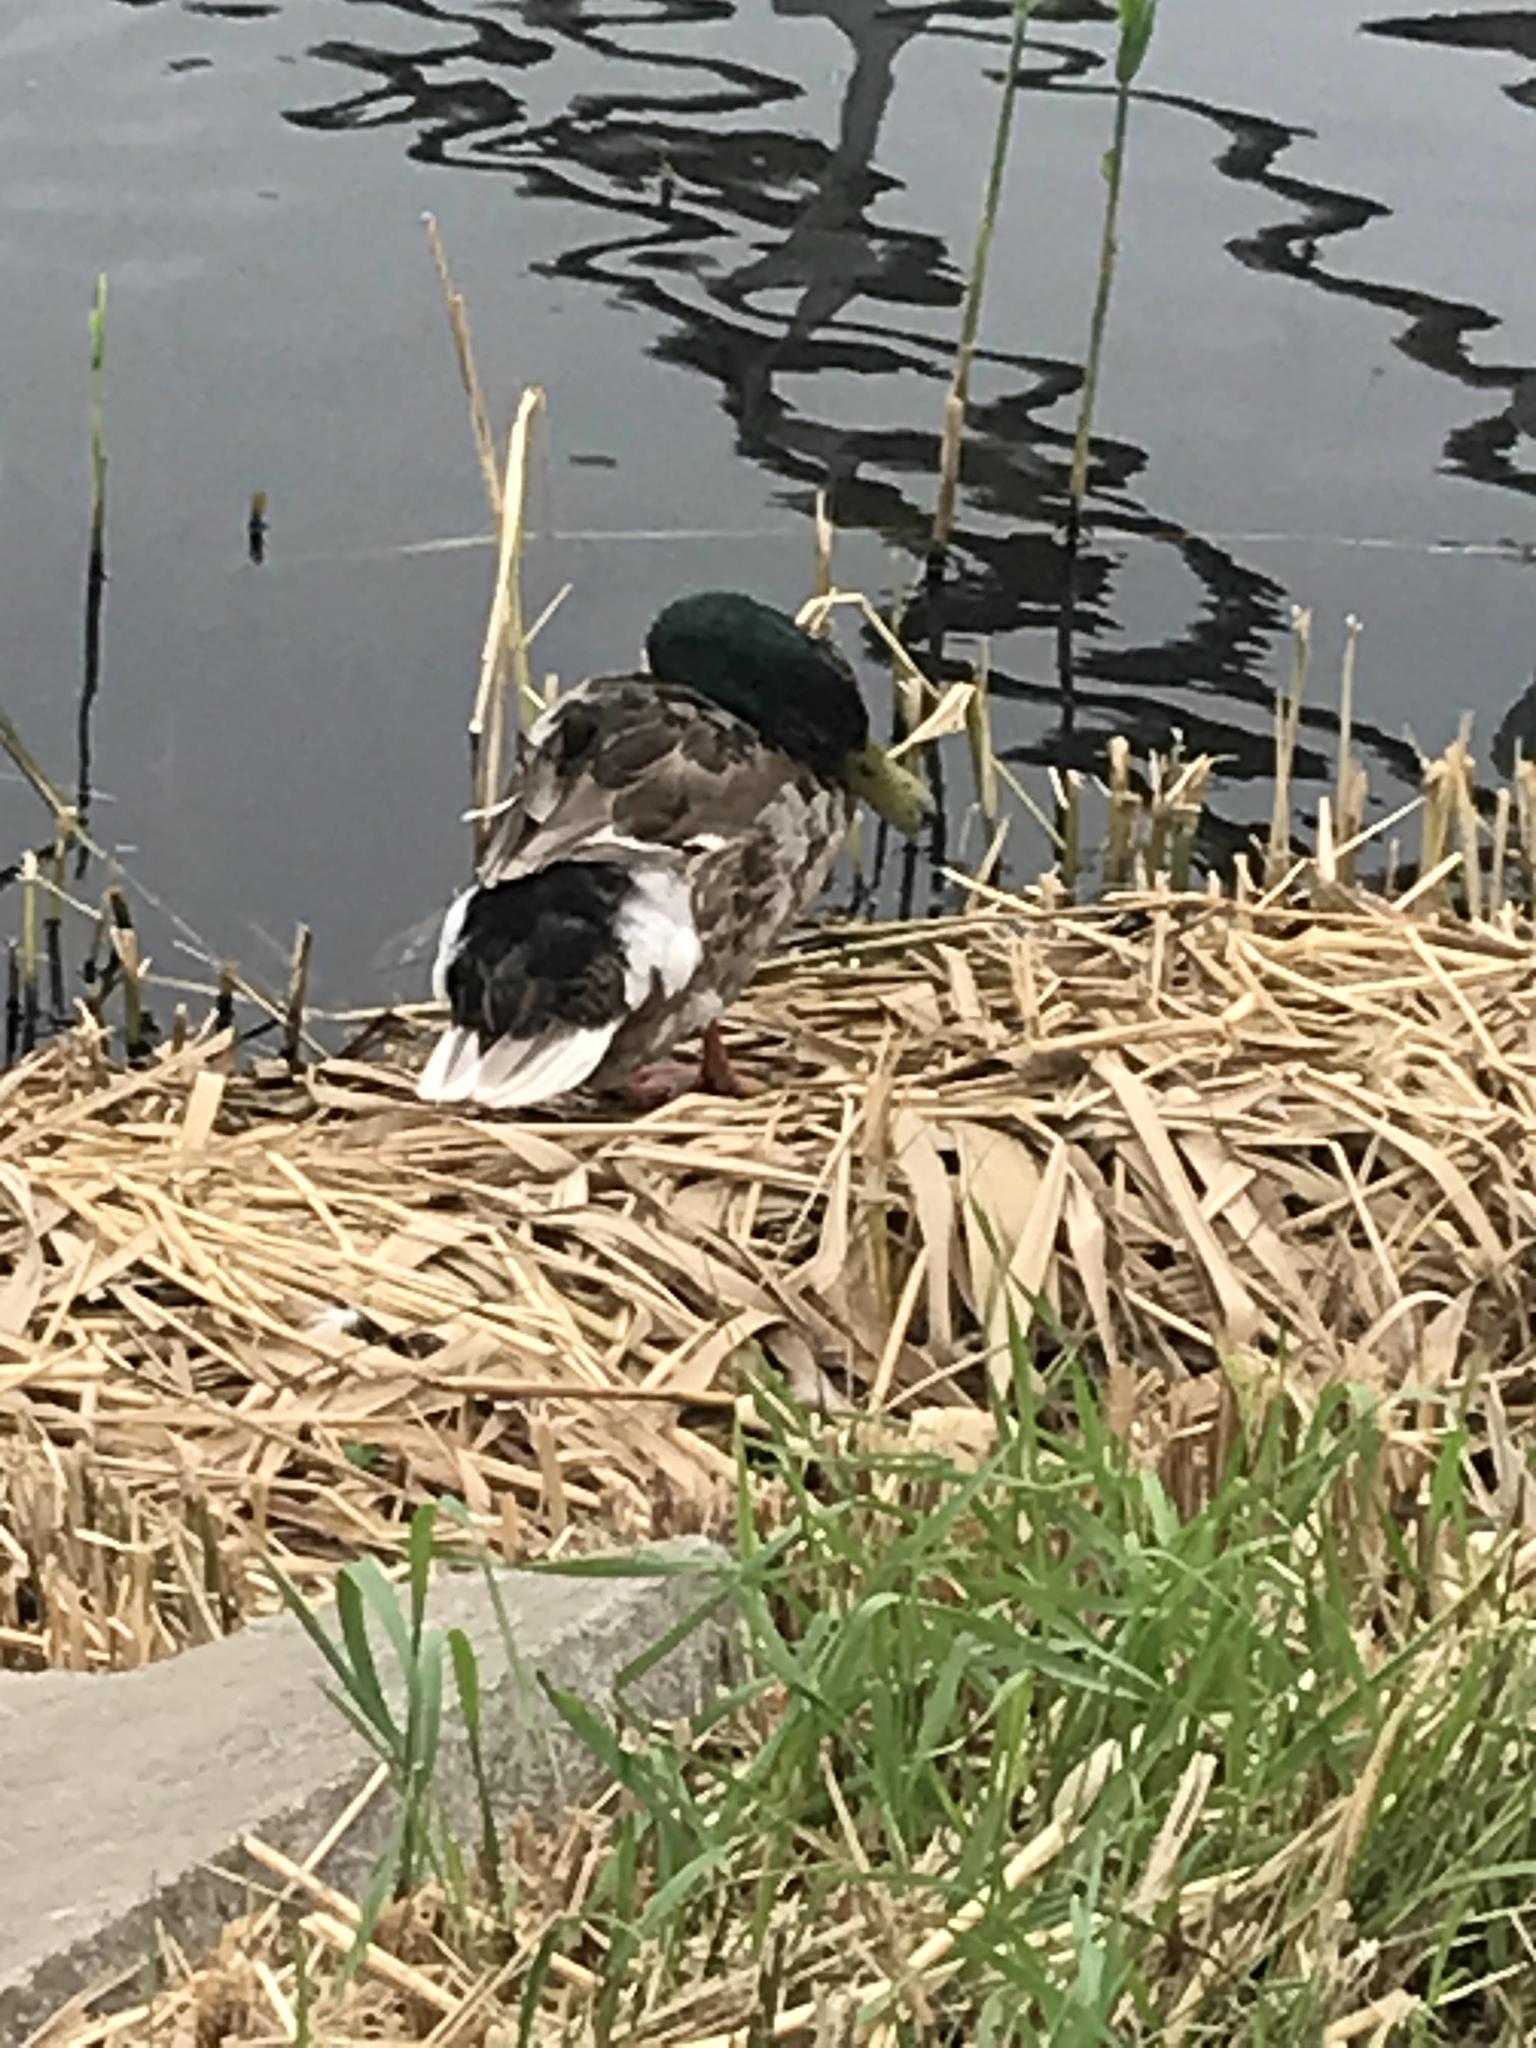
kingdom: Animalia
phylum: Chordata
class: Aves
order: Anseriformes
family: Anatidae
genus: Anas
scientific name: Anas platyrhynchos
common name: Mallard
